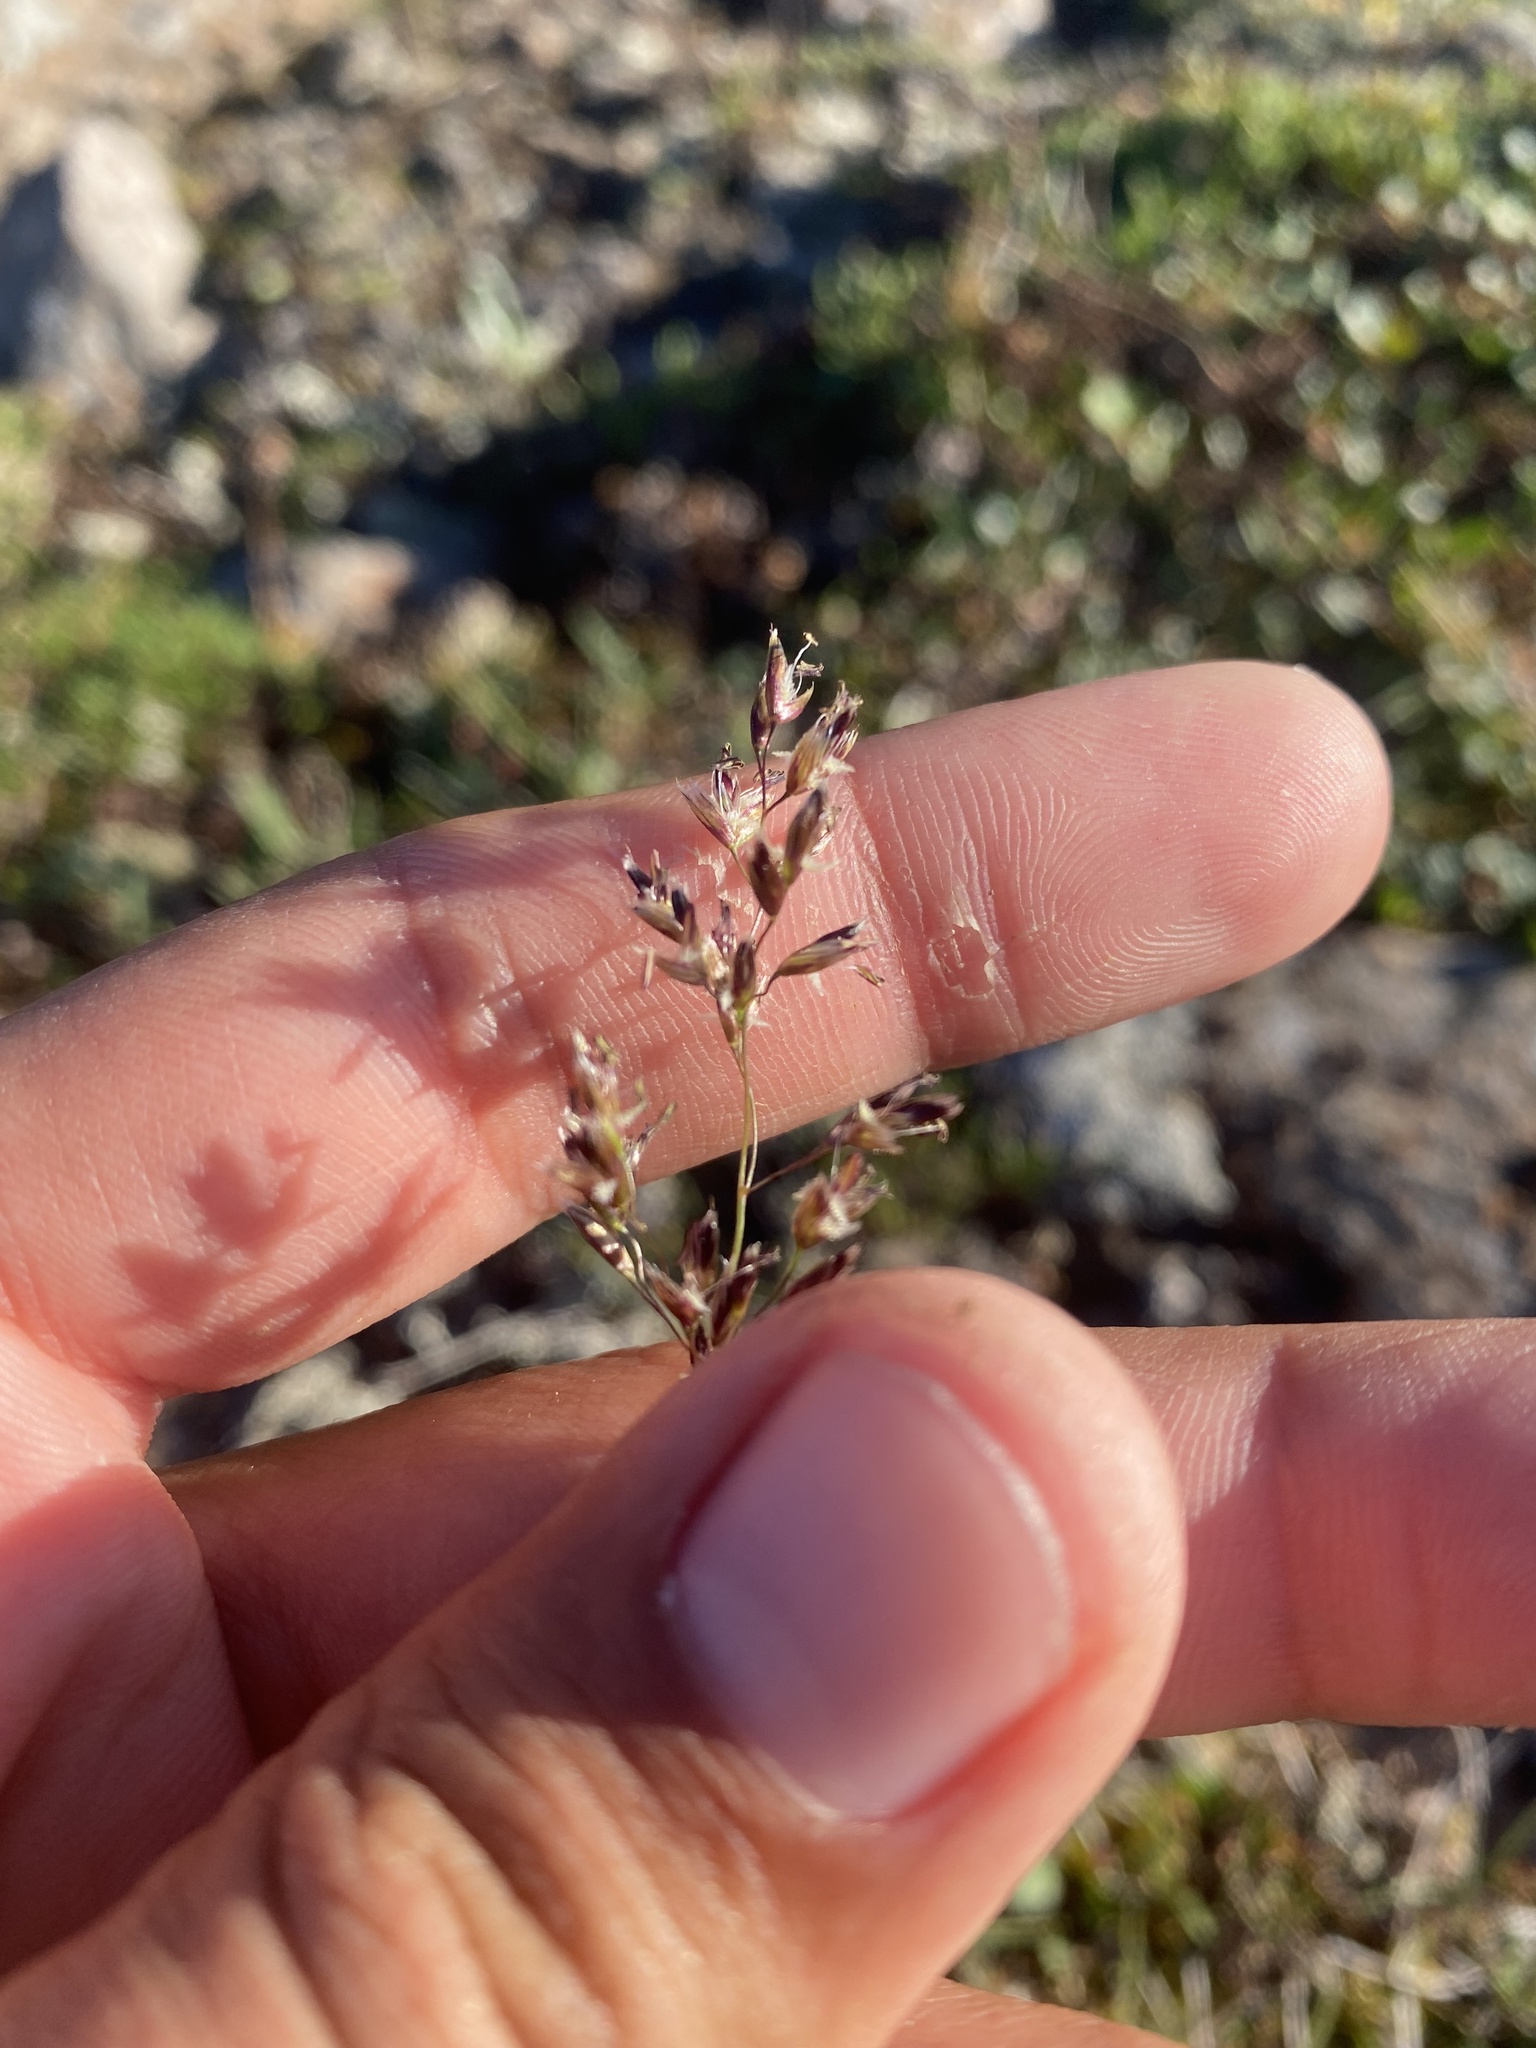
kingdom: Plantae
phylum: Tracheophyta
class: Liliopsida
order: Poales
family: Poaceae
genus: Anthoxanthum
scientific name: Anthoxanthum monticola
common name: Alpine sweetgrass
